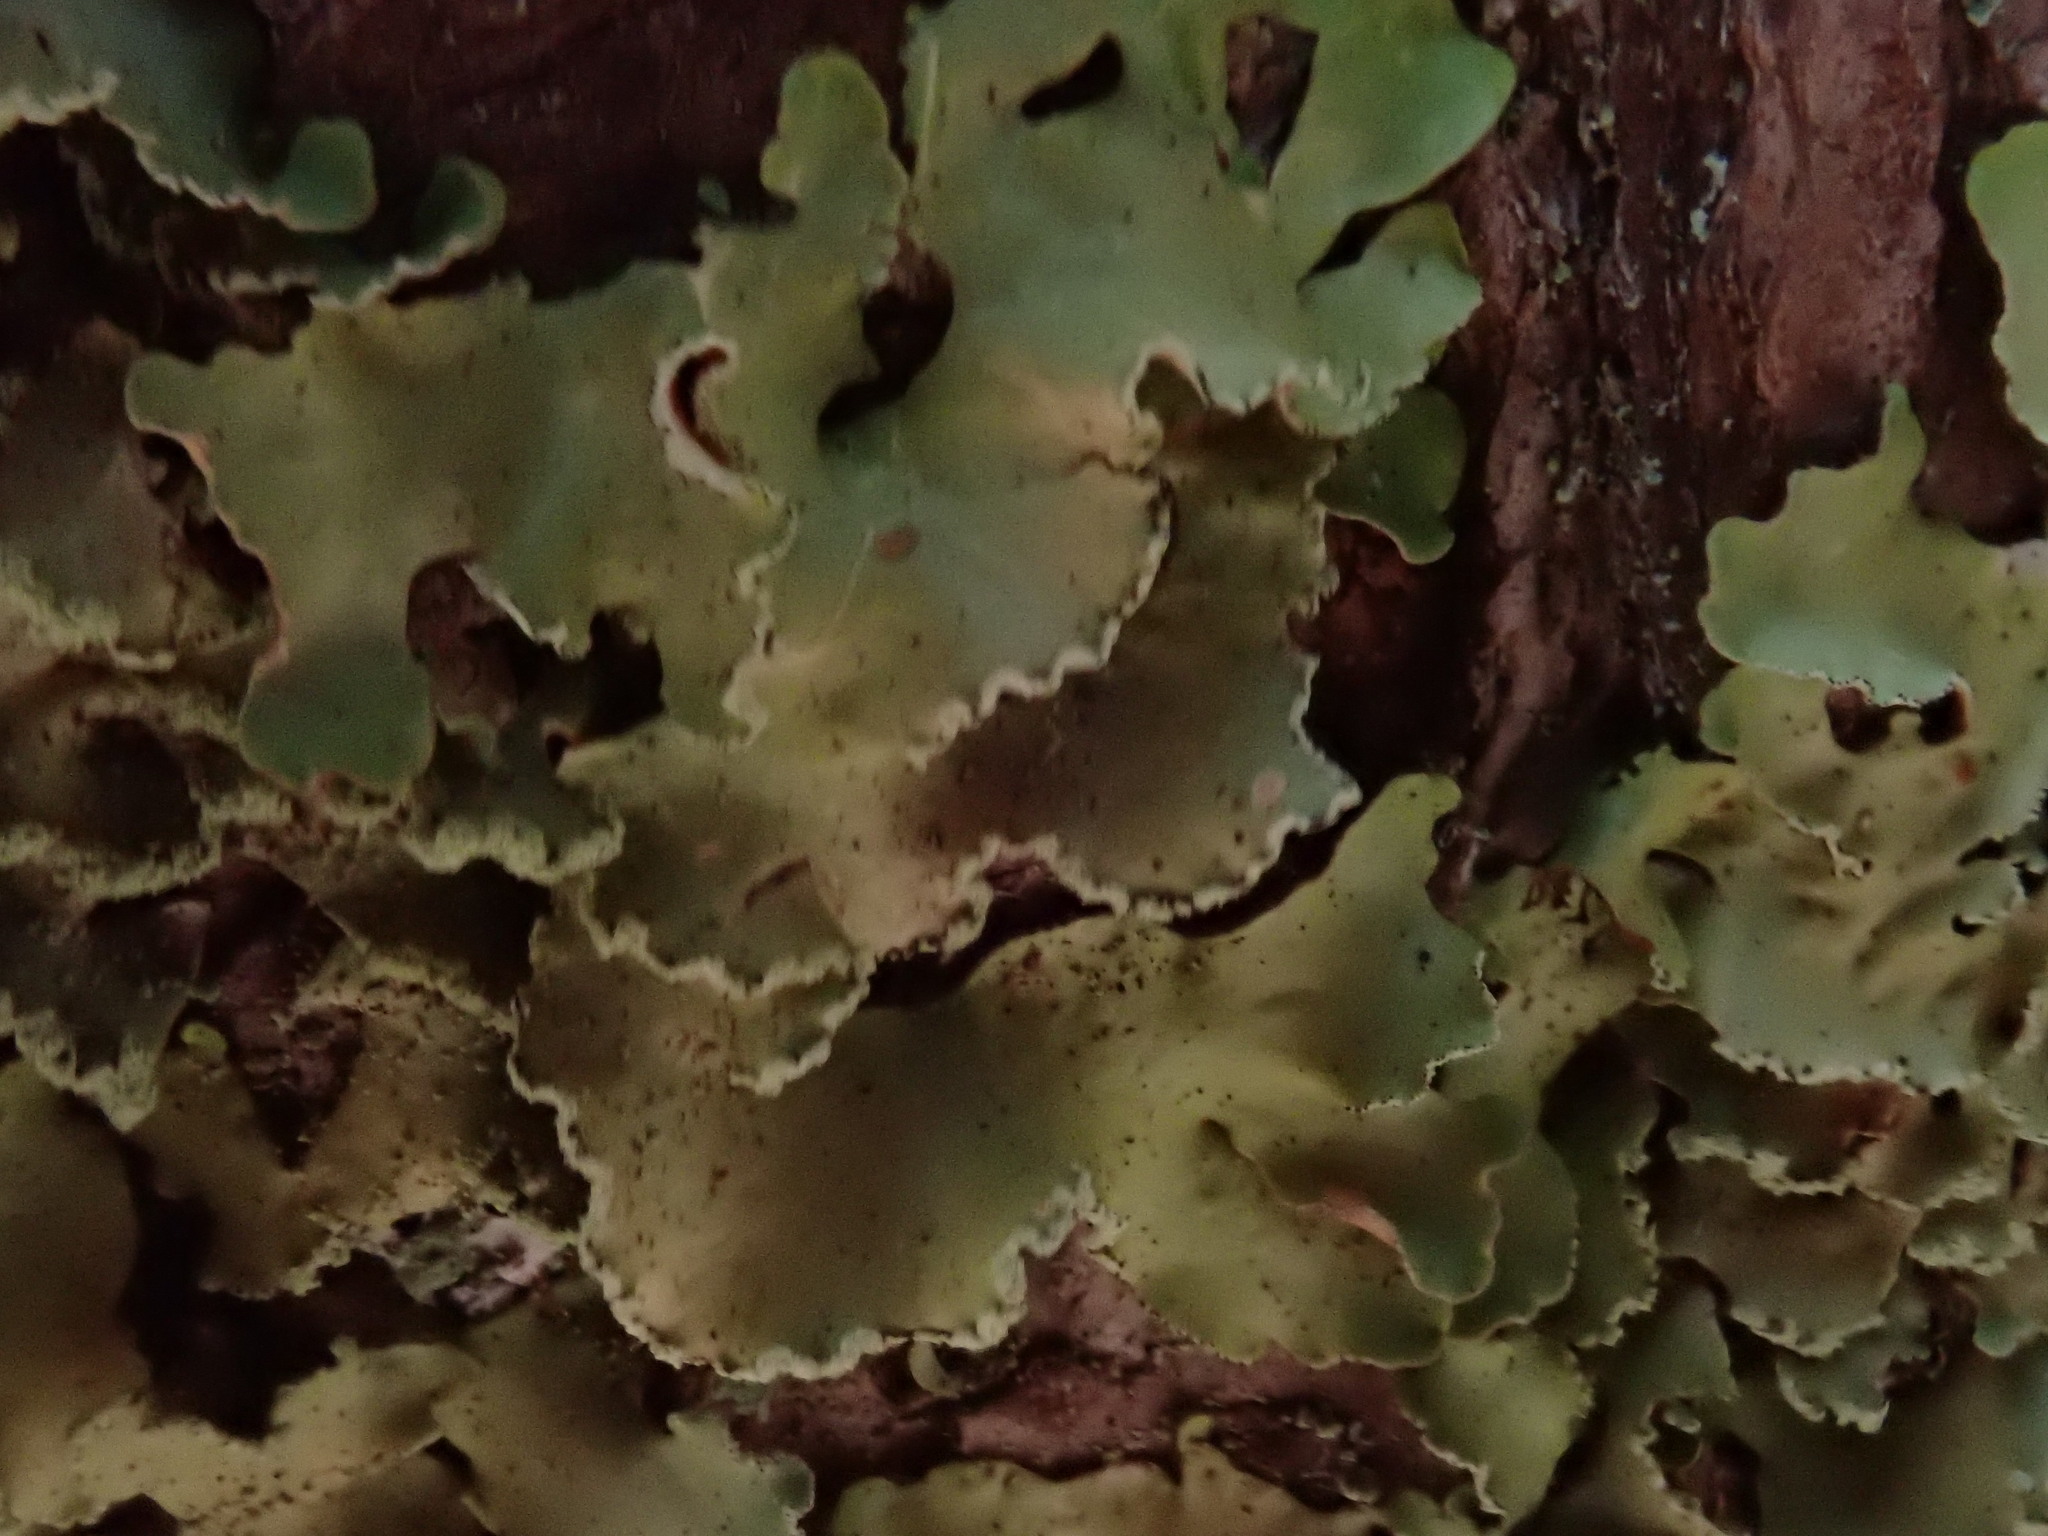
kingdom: Fungi
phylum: Ascomycota
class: Lecanoromycetes
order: Lecanorales
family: Parmeliaceae
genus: Usnocetraria
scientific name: Usnocetraria oakesiana
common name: Yellow ribbon lichen
